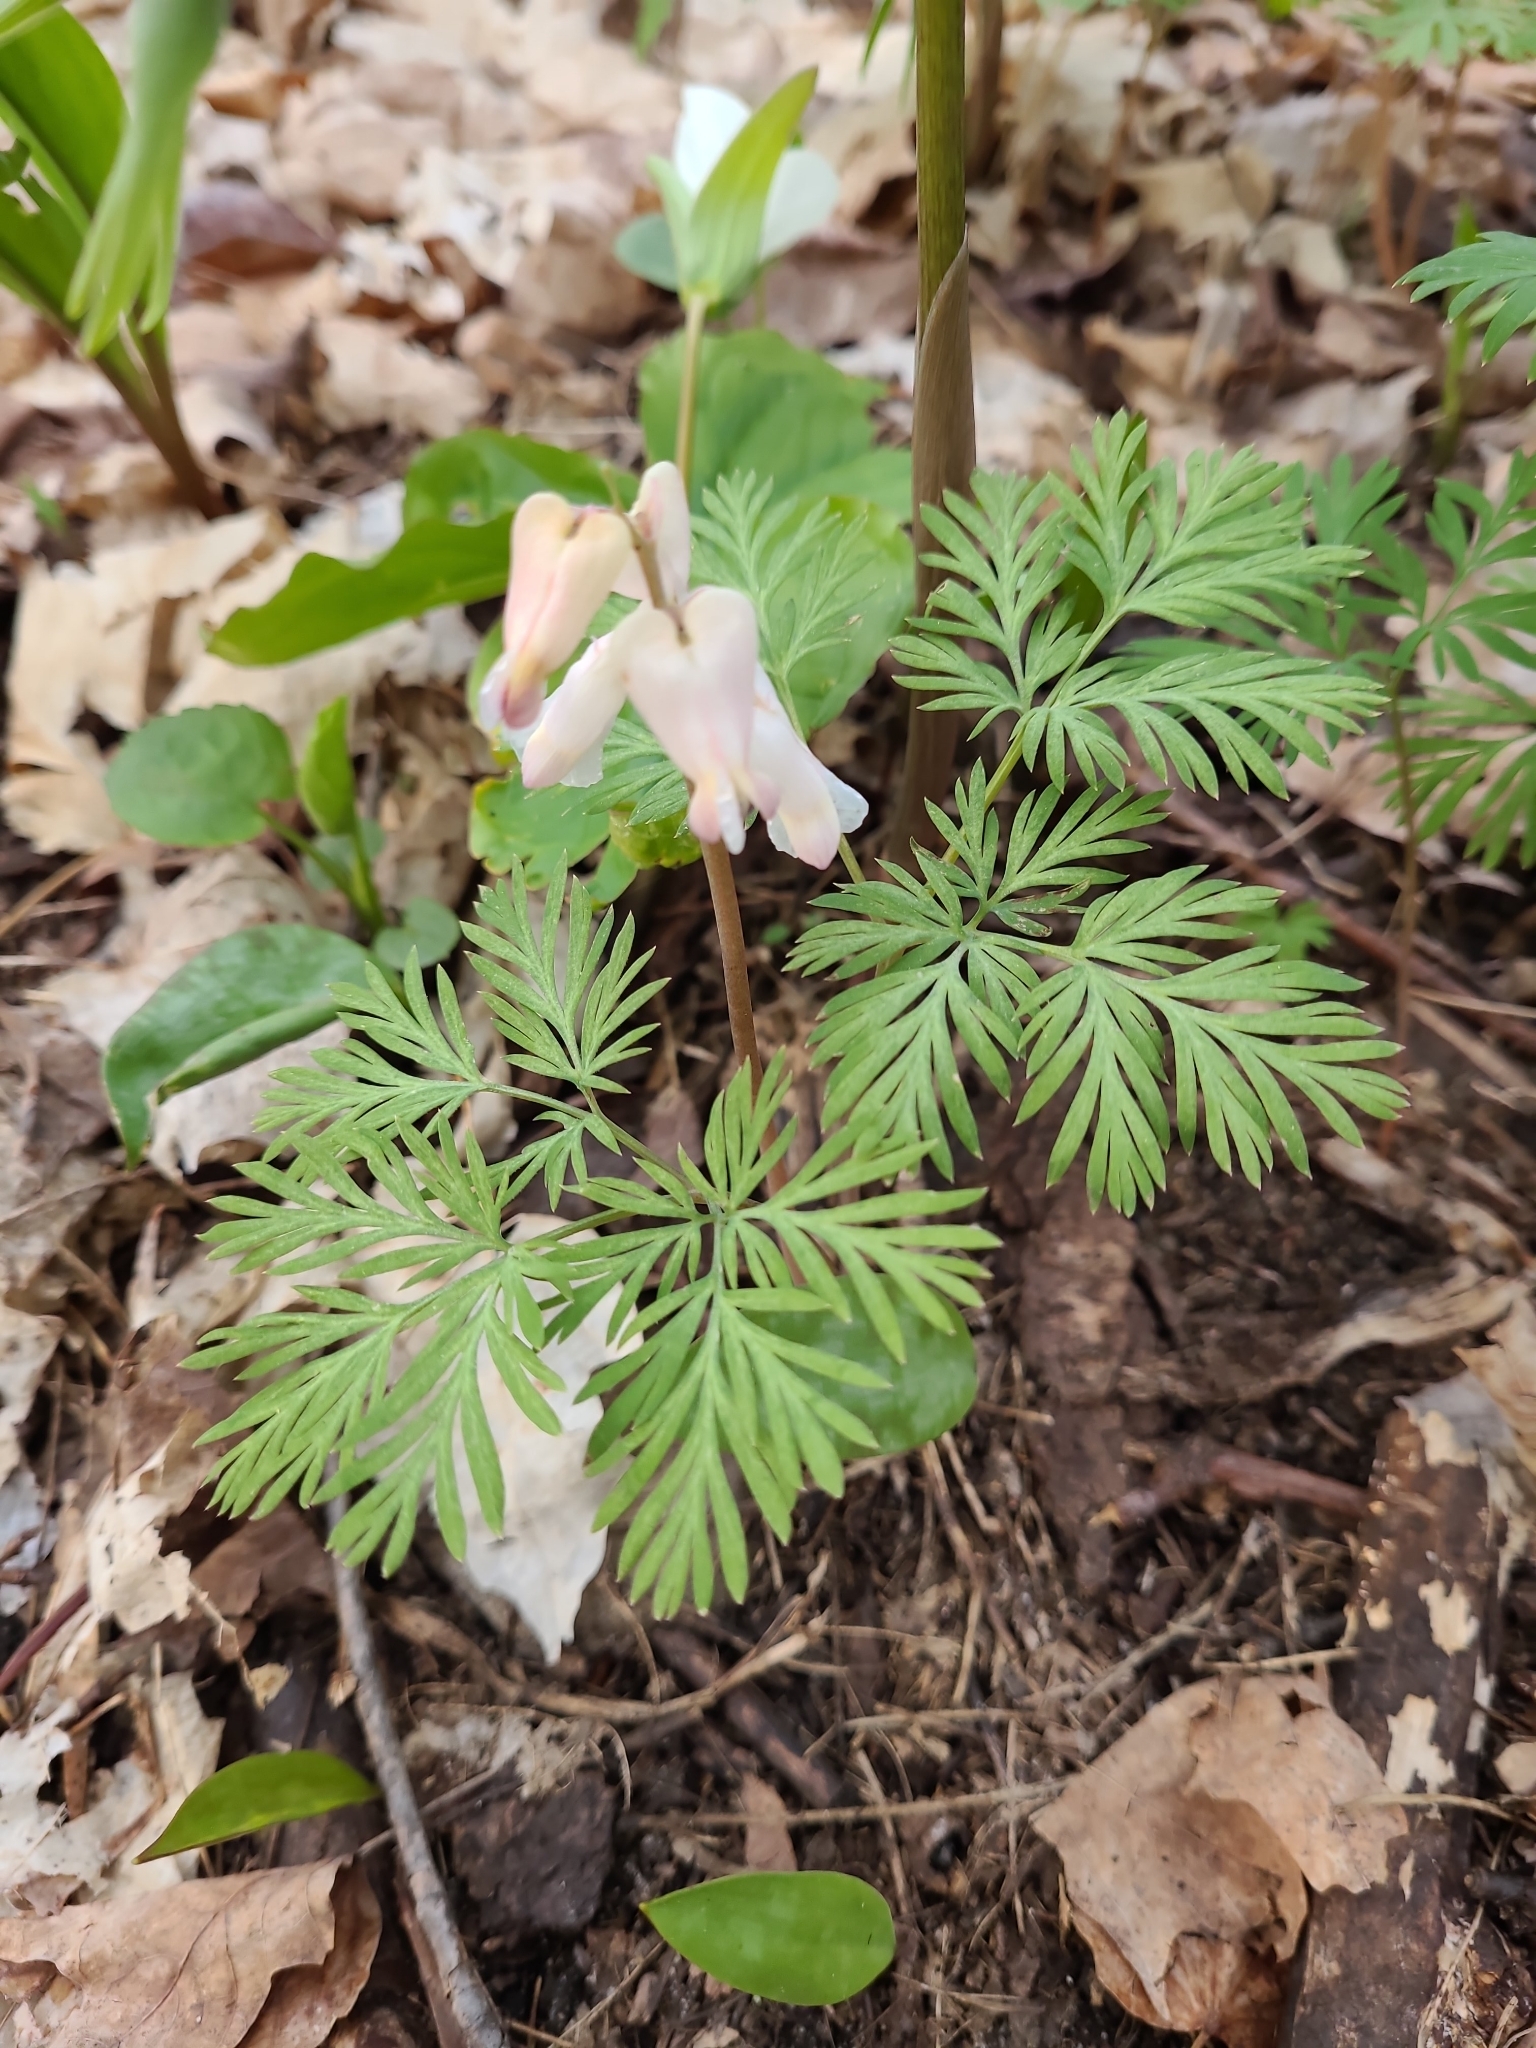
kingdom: Plantae
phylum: Tracheophyta
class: Magnoliopsida
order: Ranunculales
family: Papaveraceae
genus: Dicentra
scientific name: Dicentra canadensis
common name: Squirrel-corn
